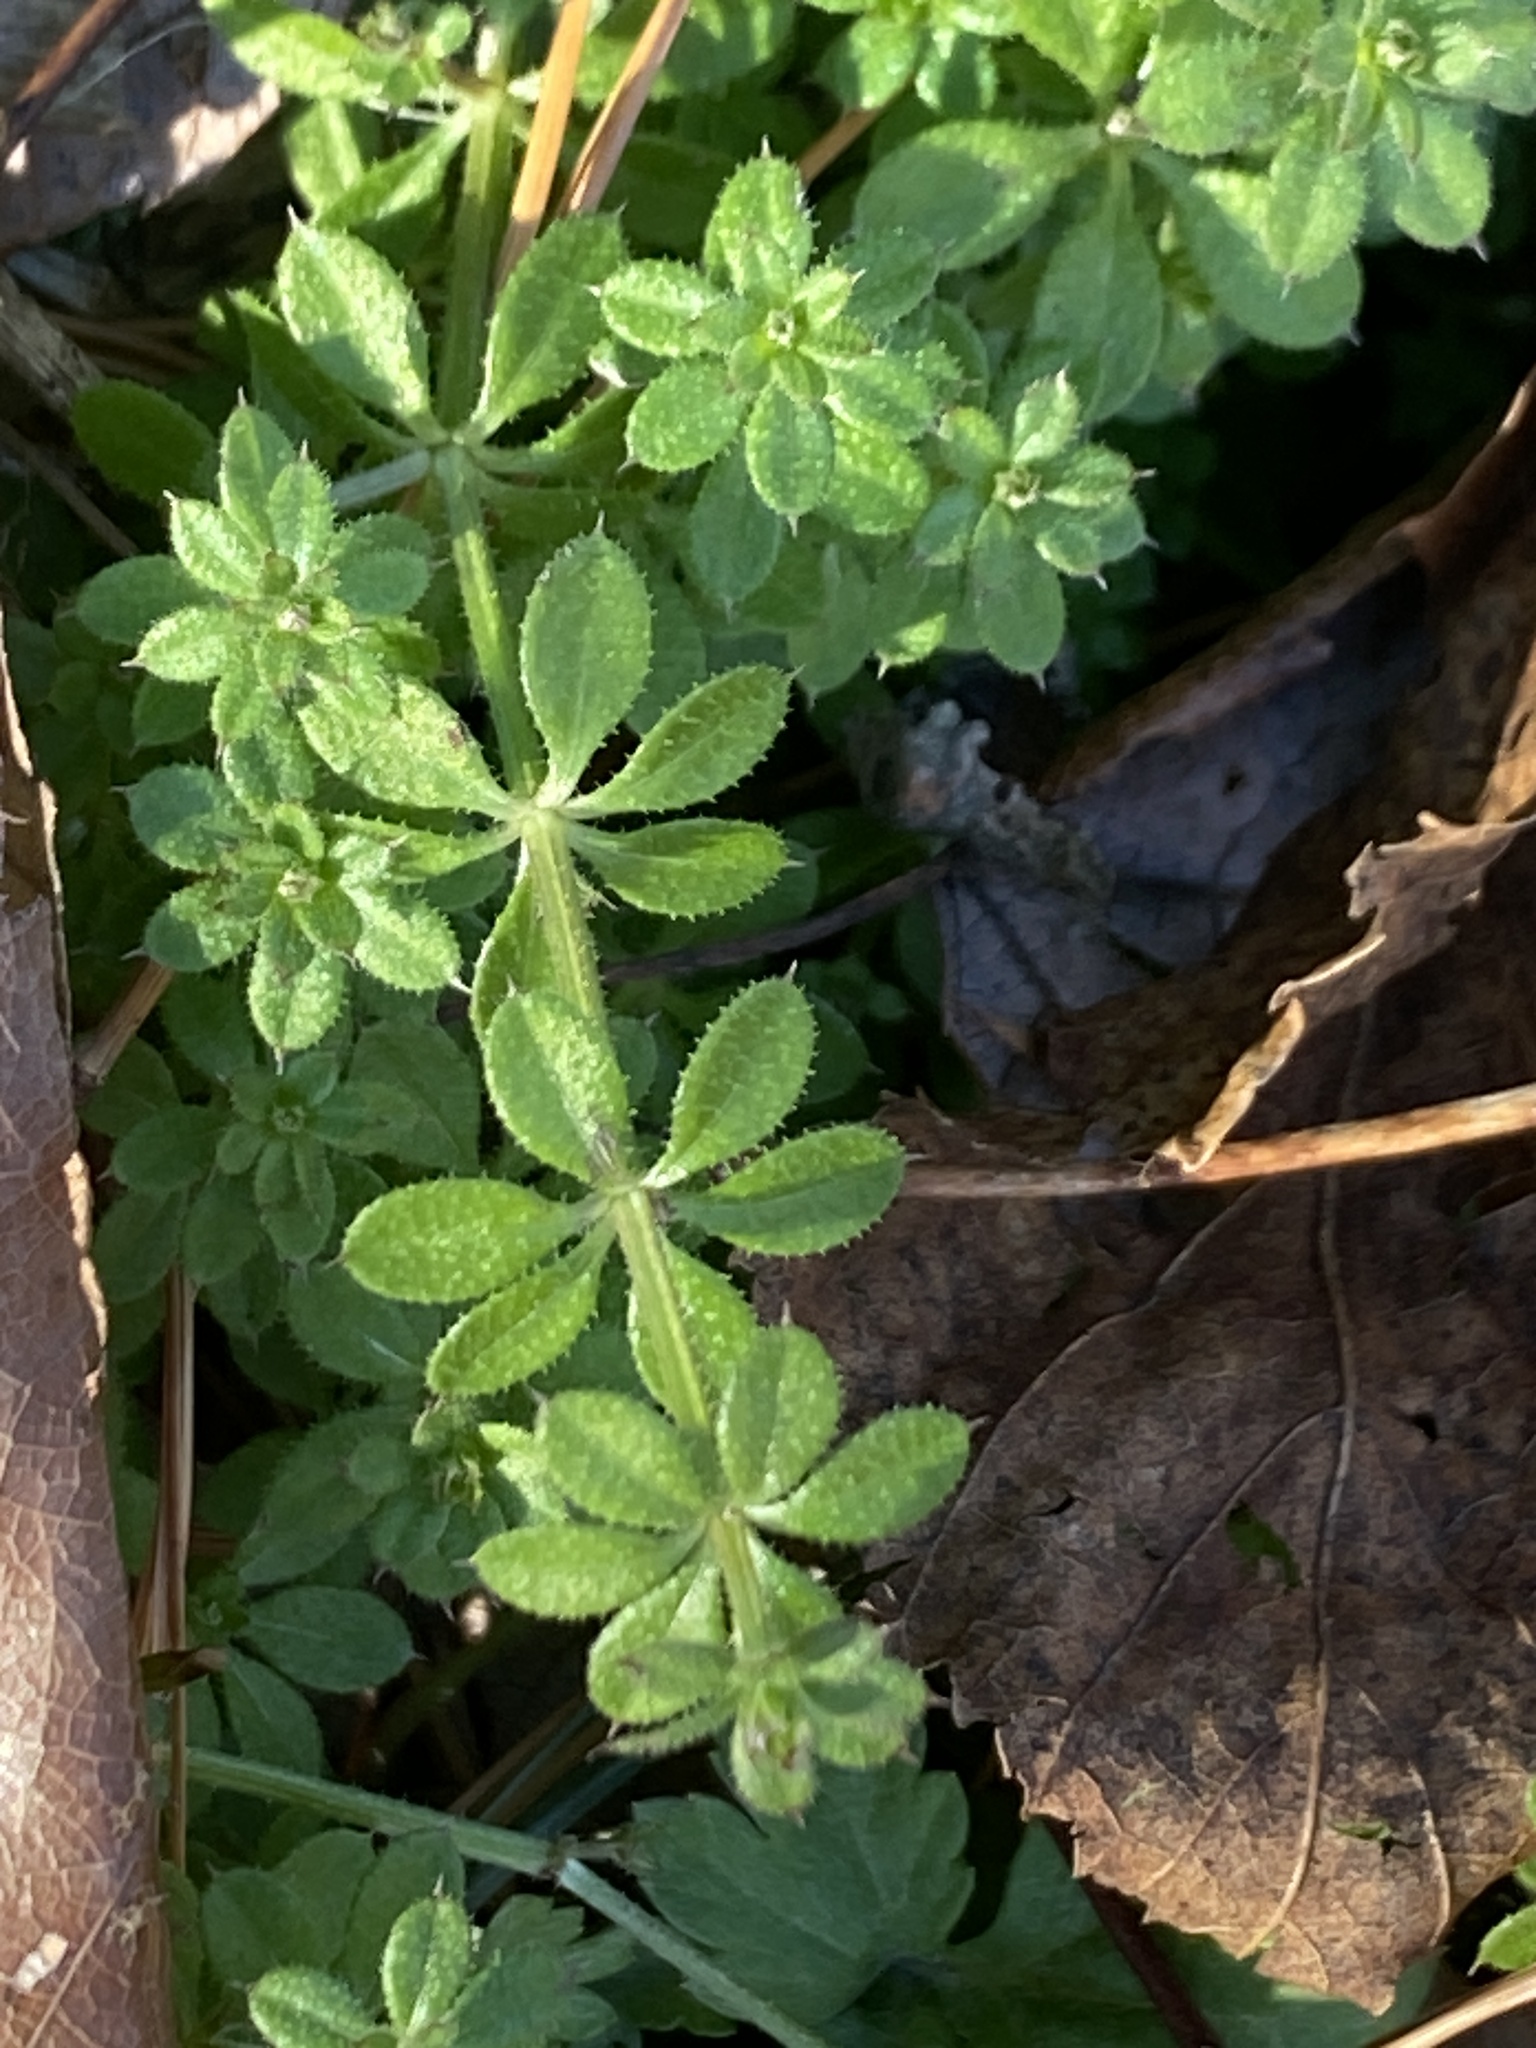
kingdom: Plantae
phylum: Tracheophyta
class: Magnoliopsida
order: Gentianales
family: Rubiaceae
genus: Galium
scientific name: Galium aparine
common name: Cleavers
